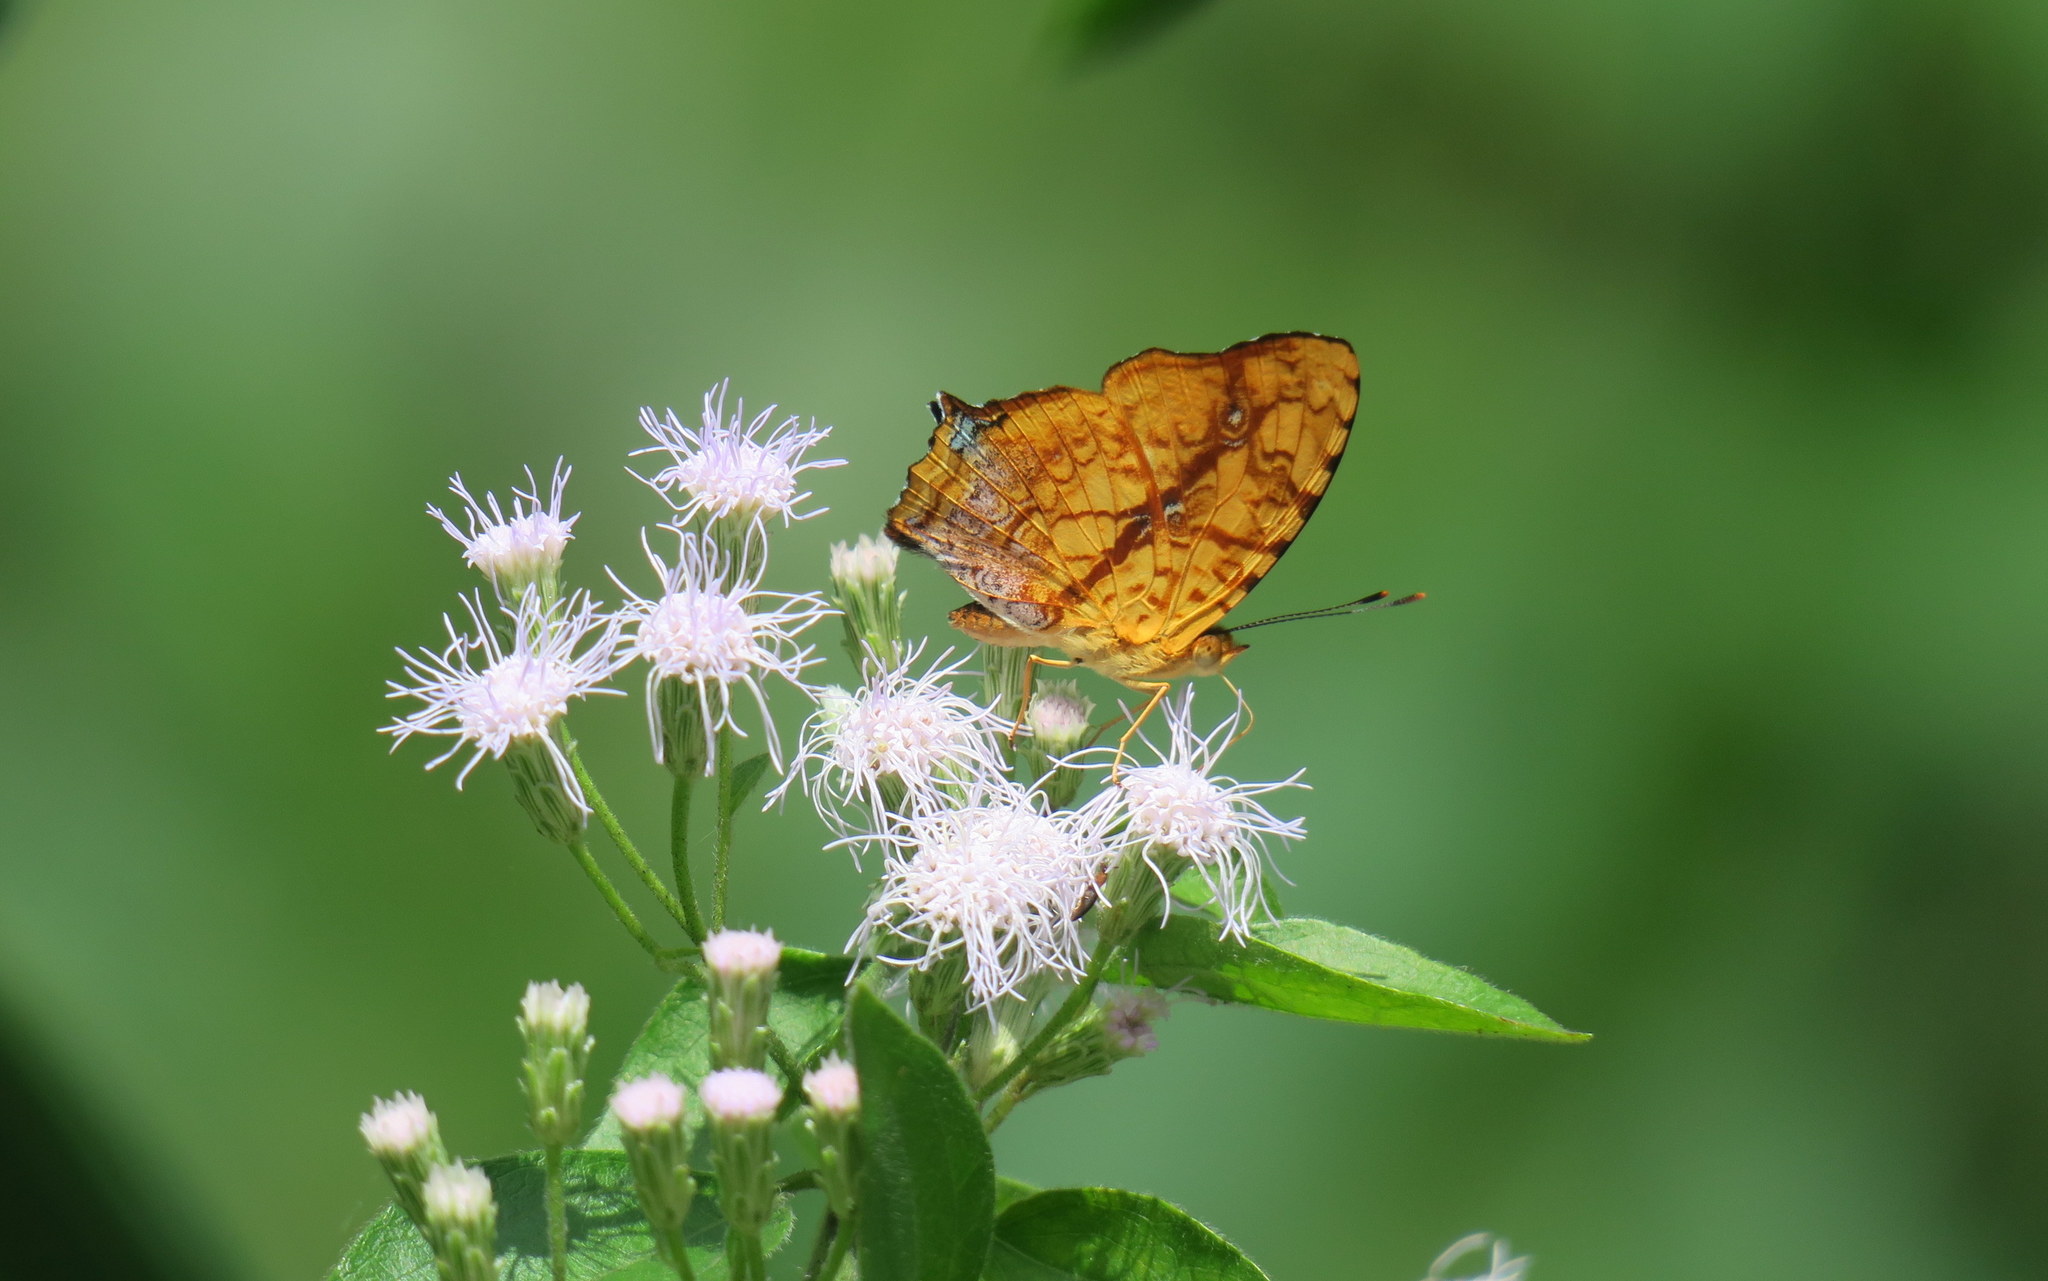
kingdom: Animalia
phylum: Arthropoda
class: Insecta
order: Lepidoptera
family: Nymphalidae
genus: Symbrenthia
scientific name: Symbrenthia hypselis
